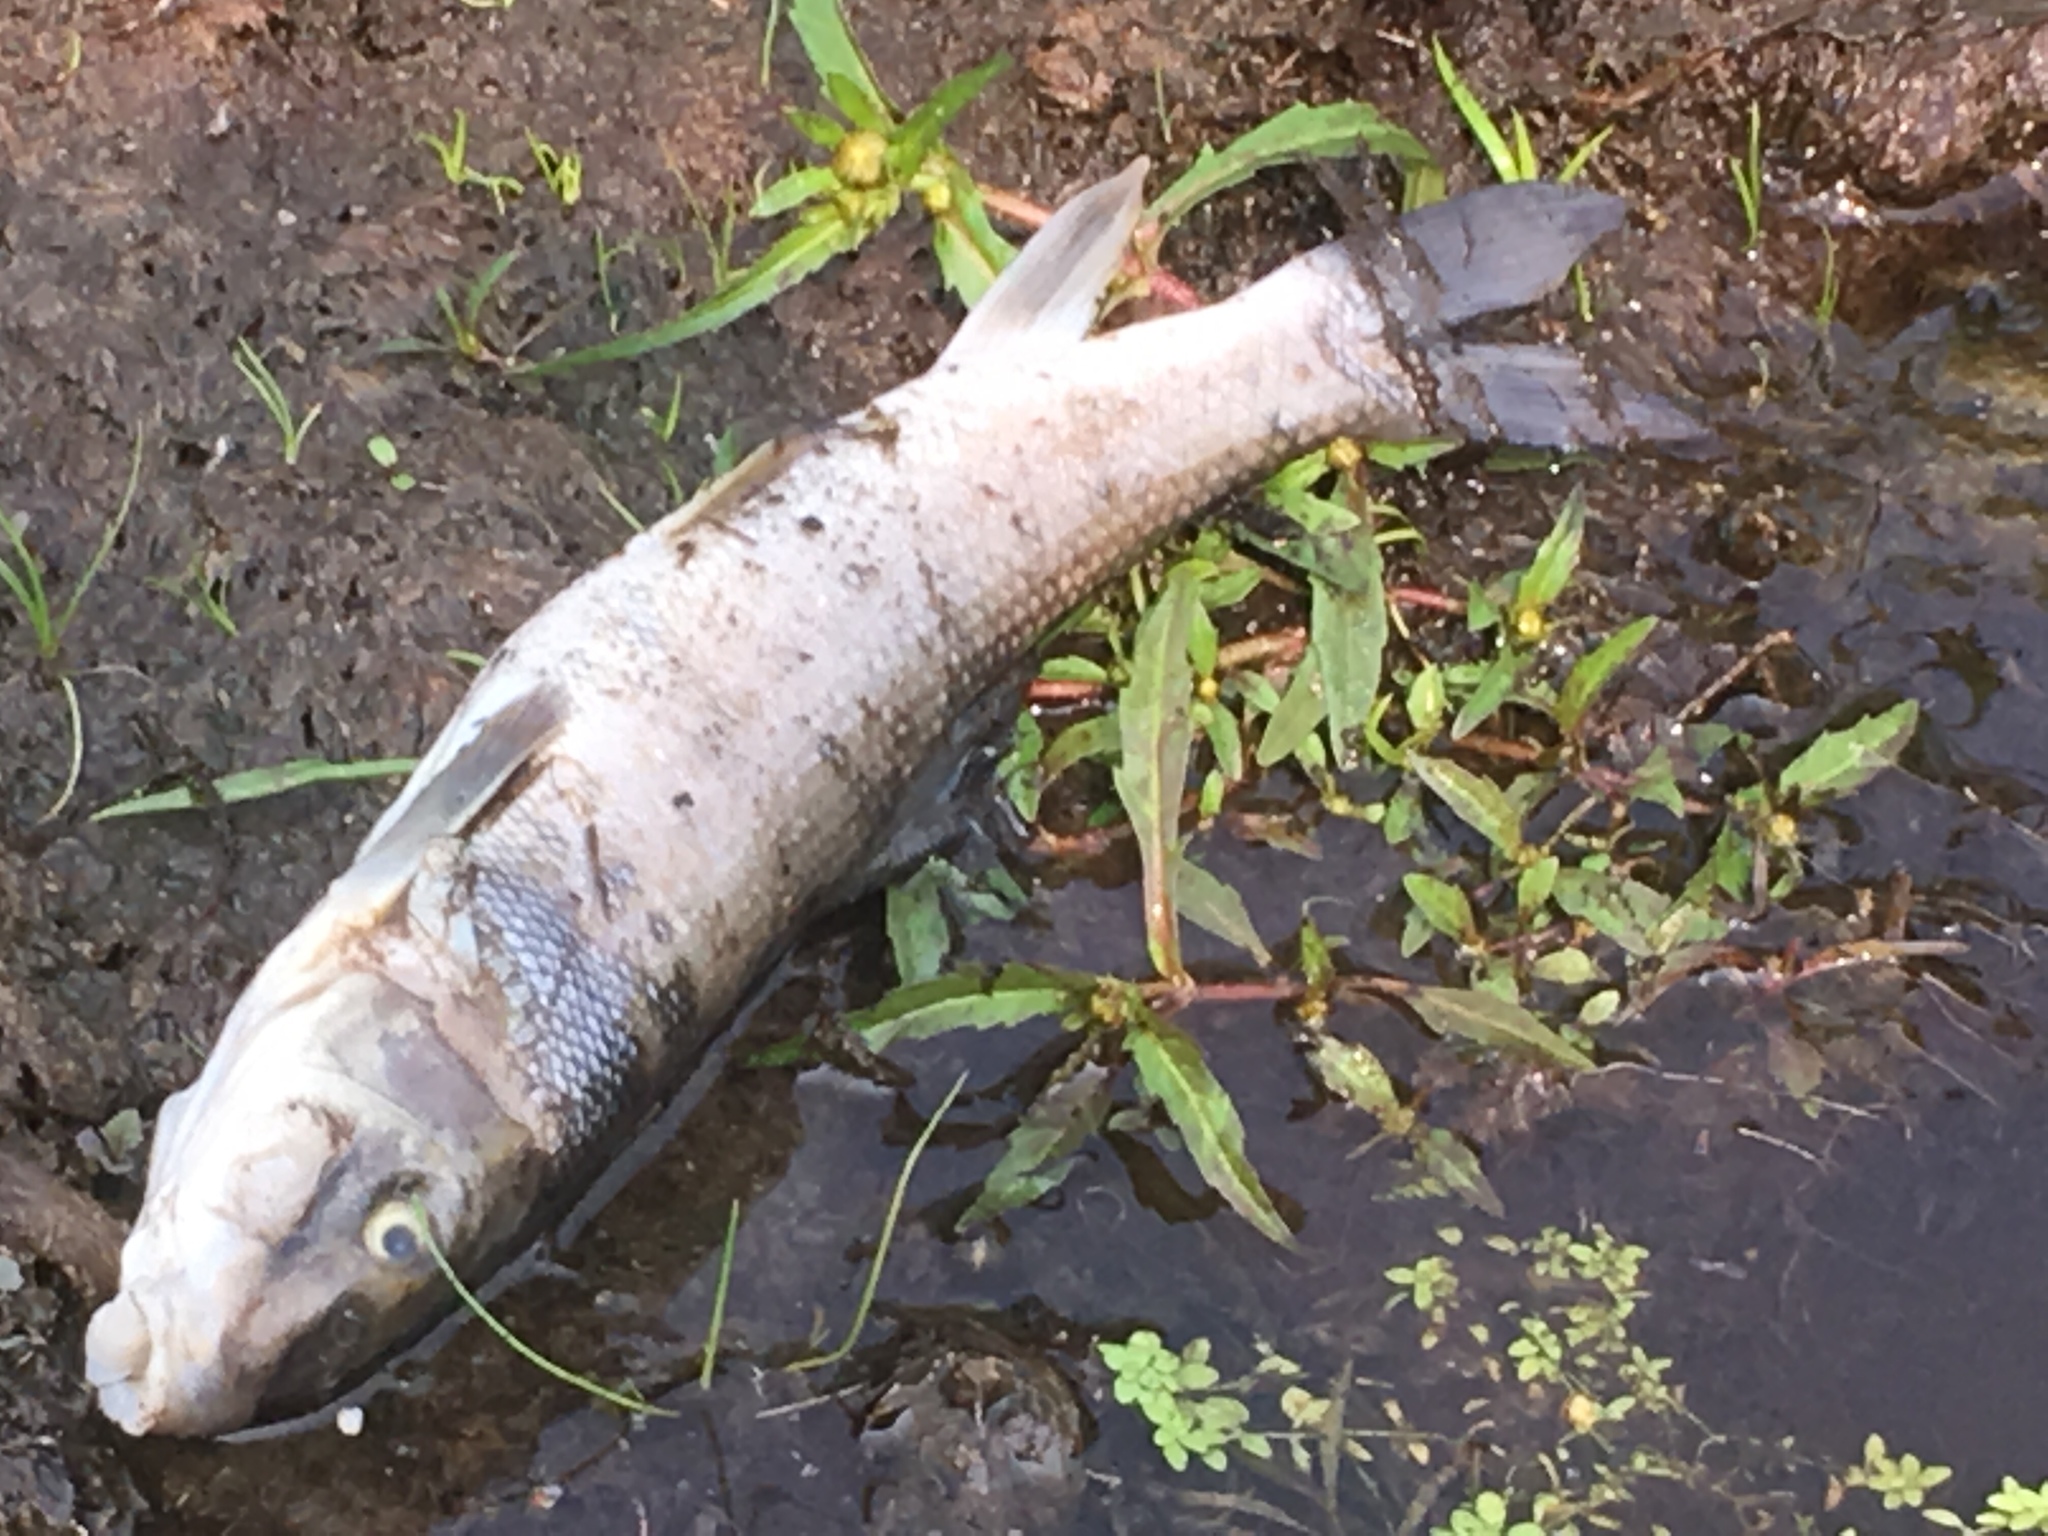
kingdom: Animalia
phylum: Chordata
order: Cypriniformes
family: Catostomidae
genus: Catostomus
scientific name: Catostomus commersonii
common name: White sucker
